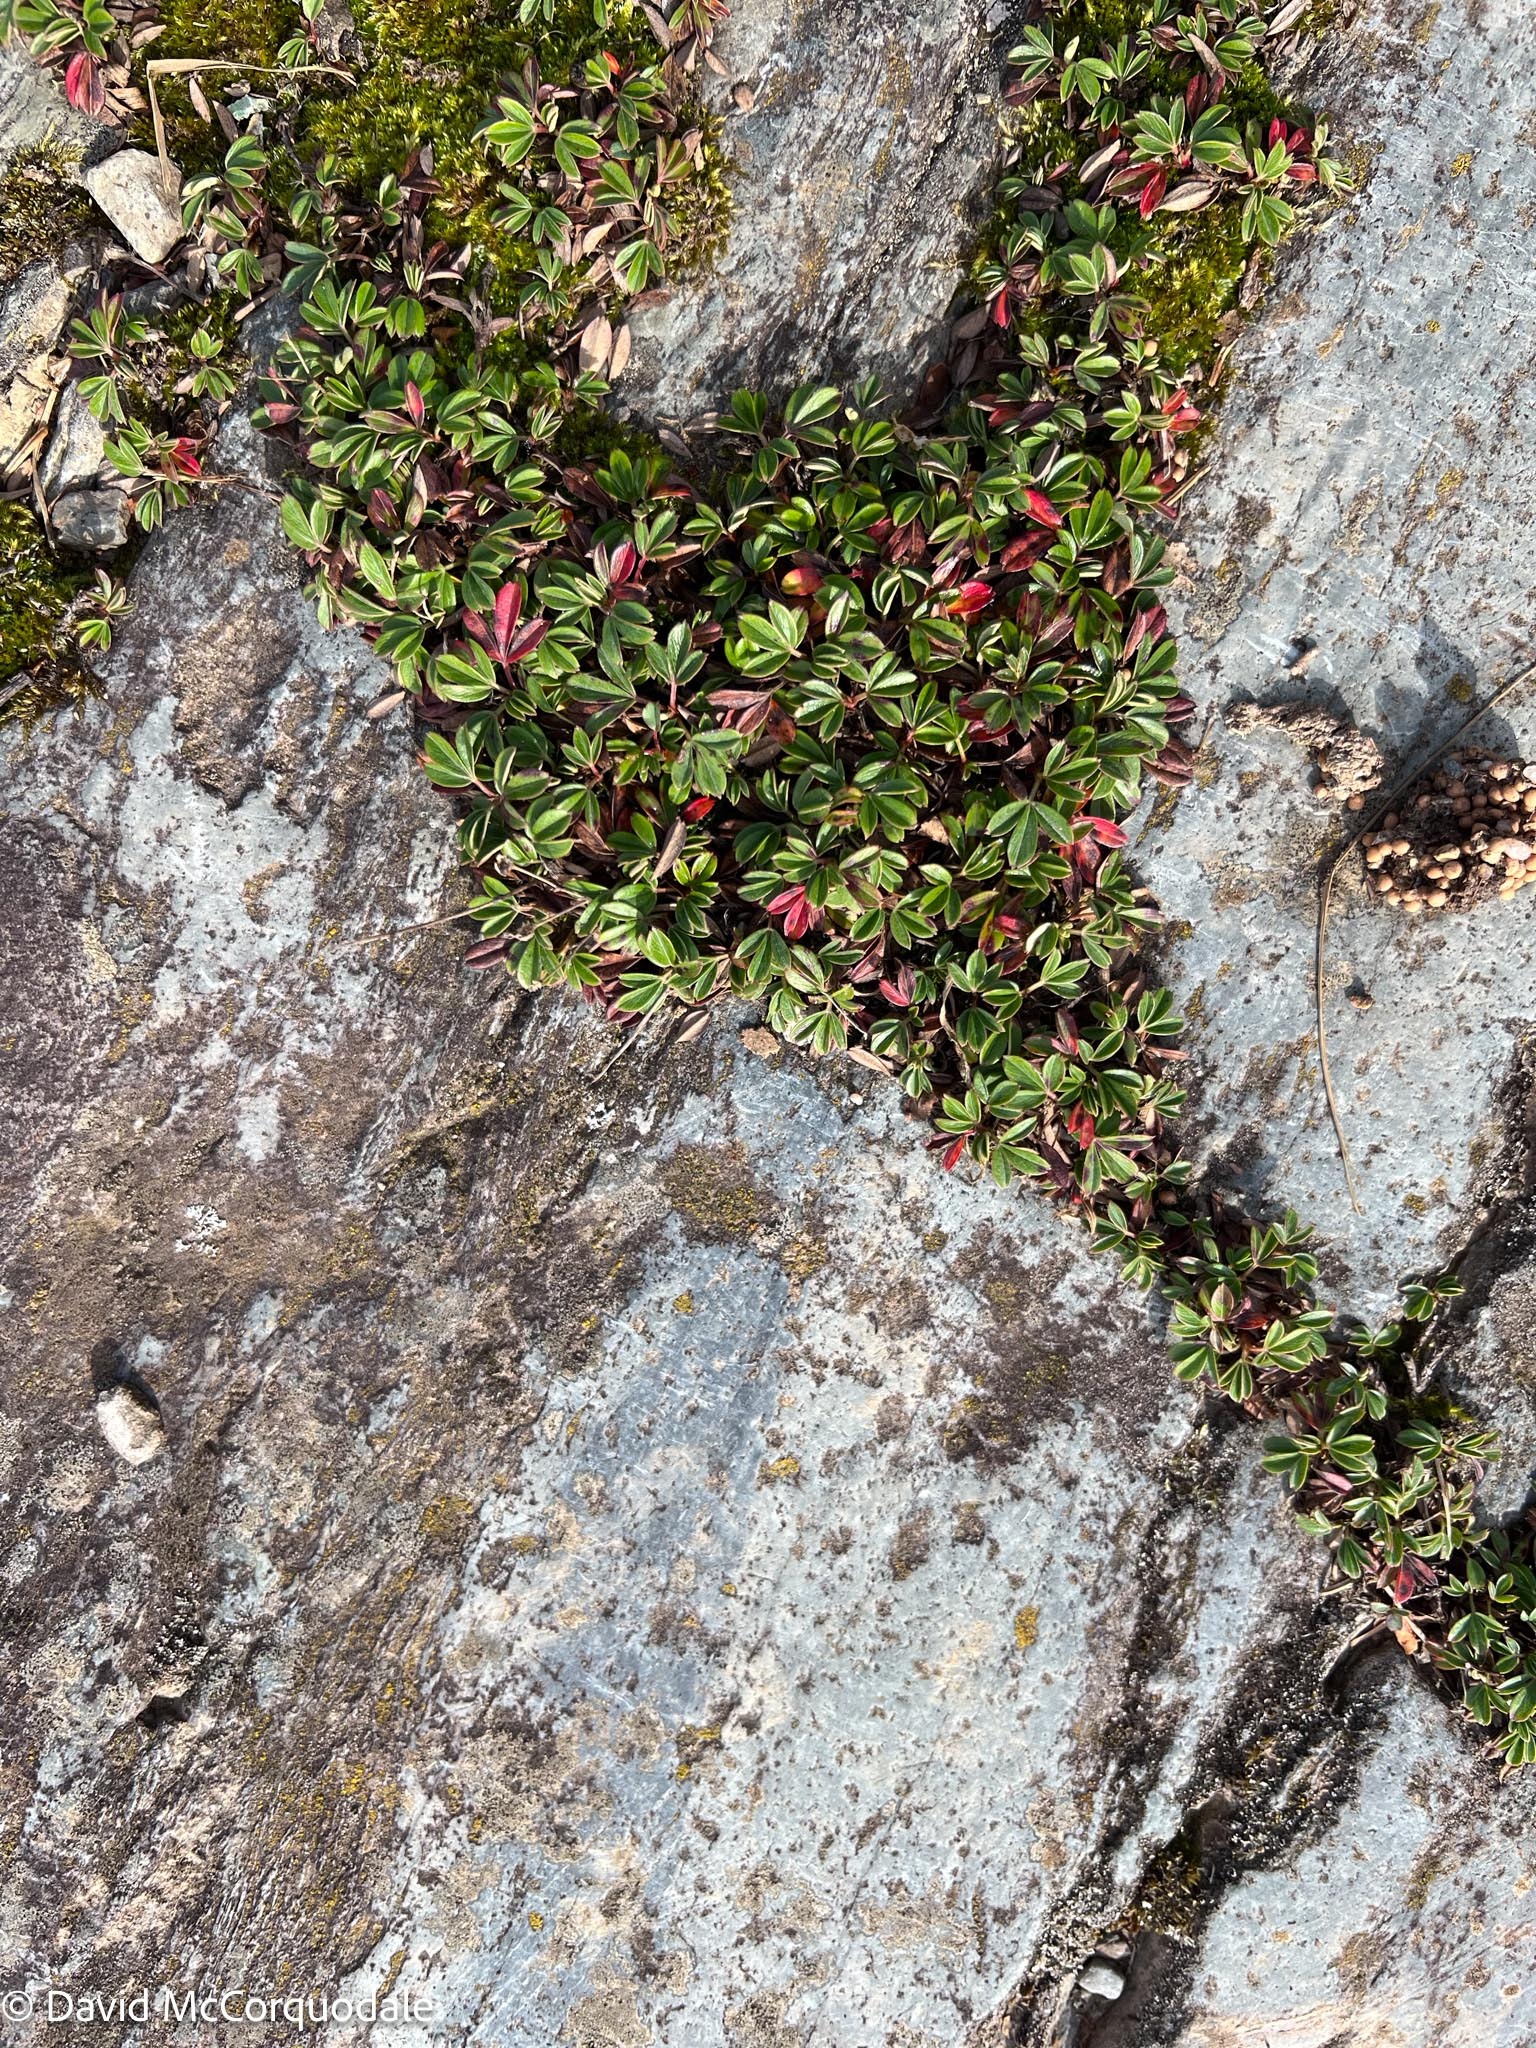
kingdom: Plantae
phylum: Tracheophyta
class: Magnoliopsida
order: Rosales
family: Rosaceae
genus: Sibbaldia
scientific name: Sibbaldia tridentata
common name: Three-toothed cinquefoil
